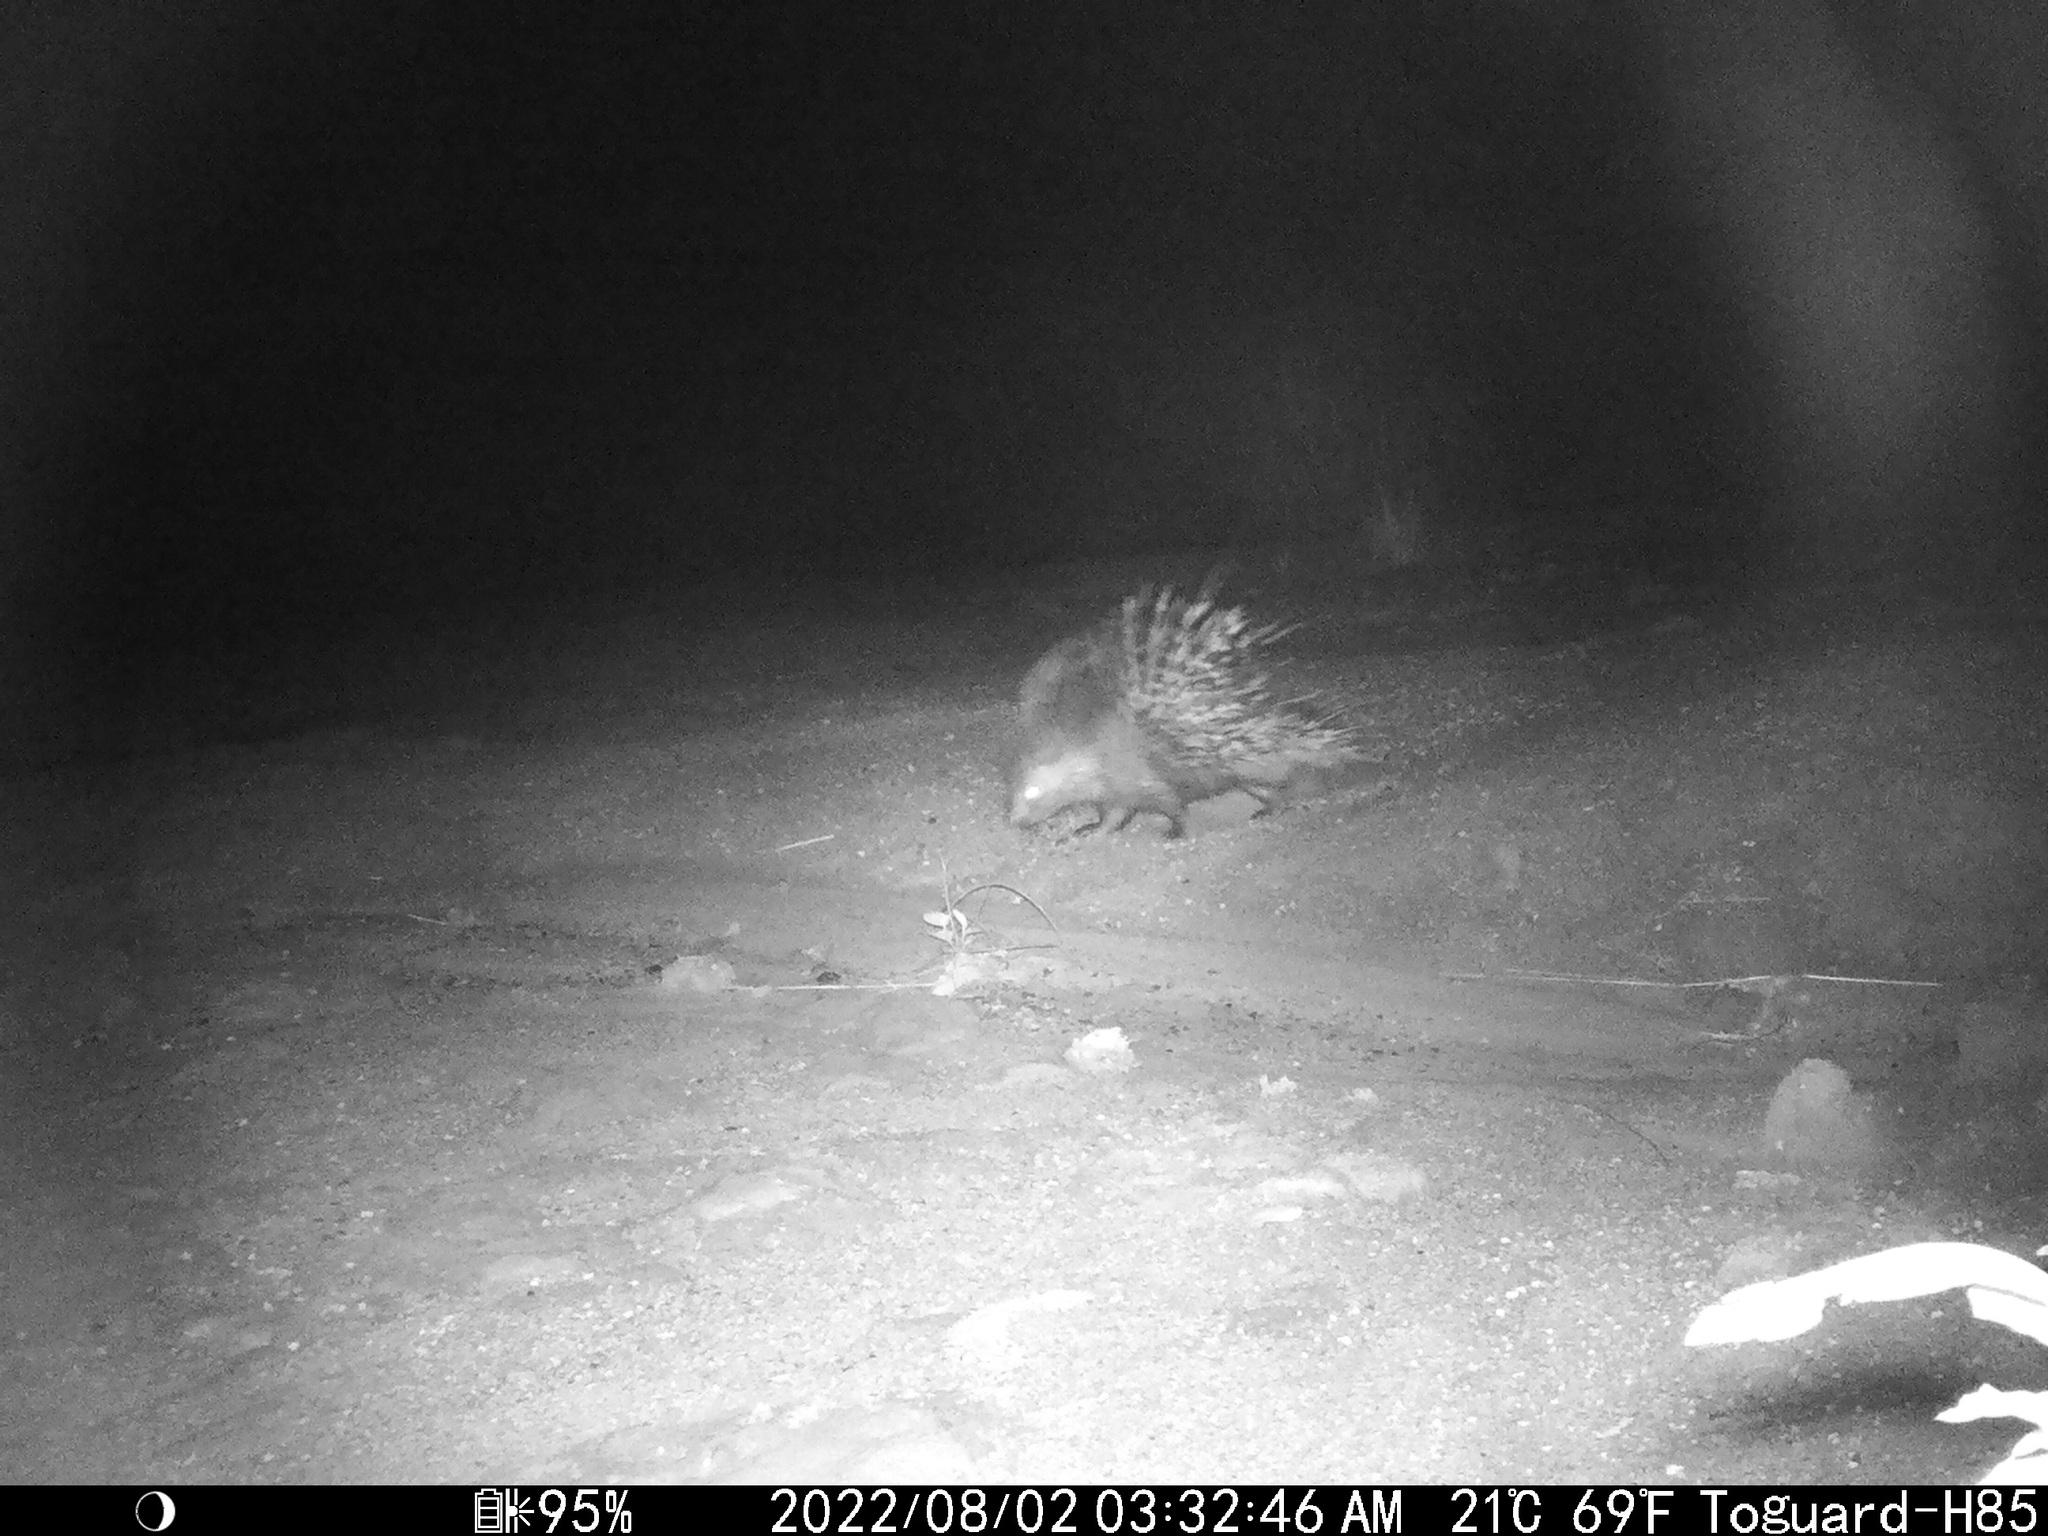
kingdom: Animalia
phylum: Chordata
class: Mammalia
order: Rodentia
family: Hystricidae
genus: Hystrix
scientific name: Hystrix cristata
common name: Crested porcupine
